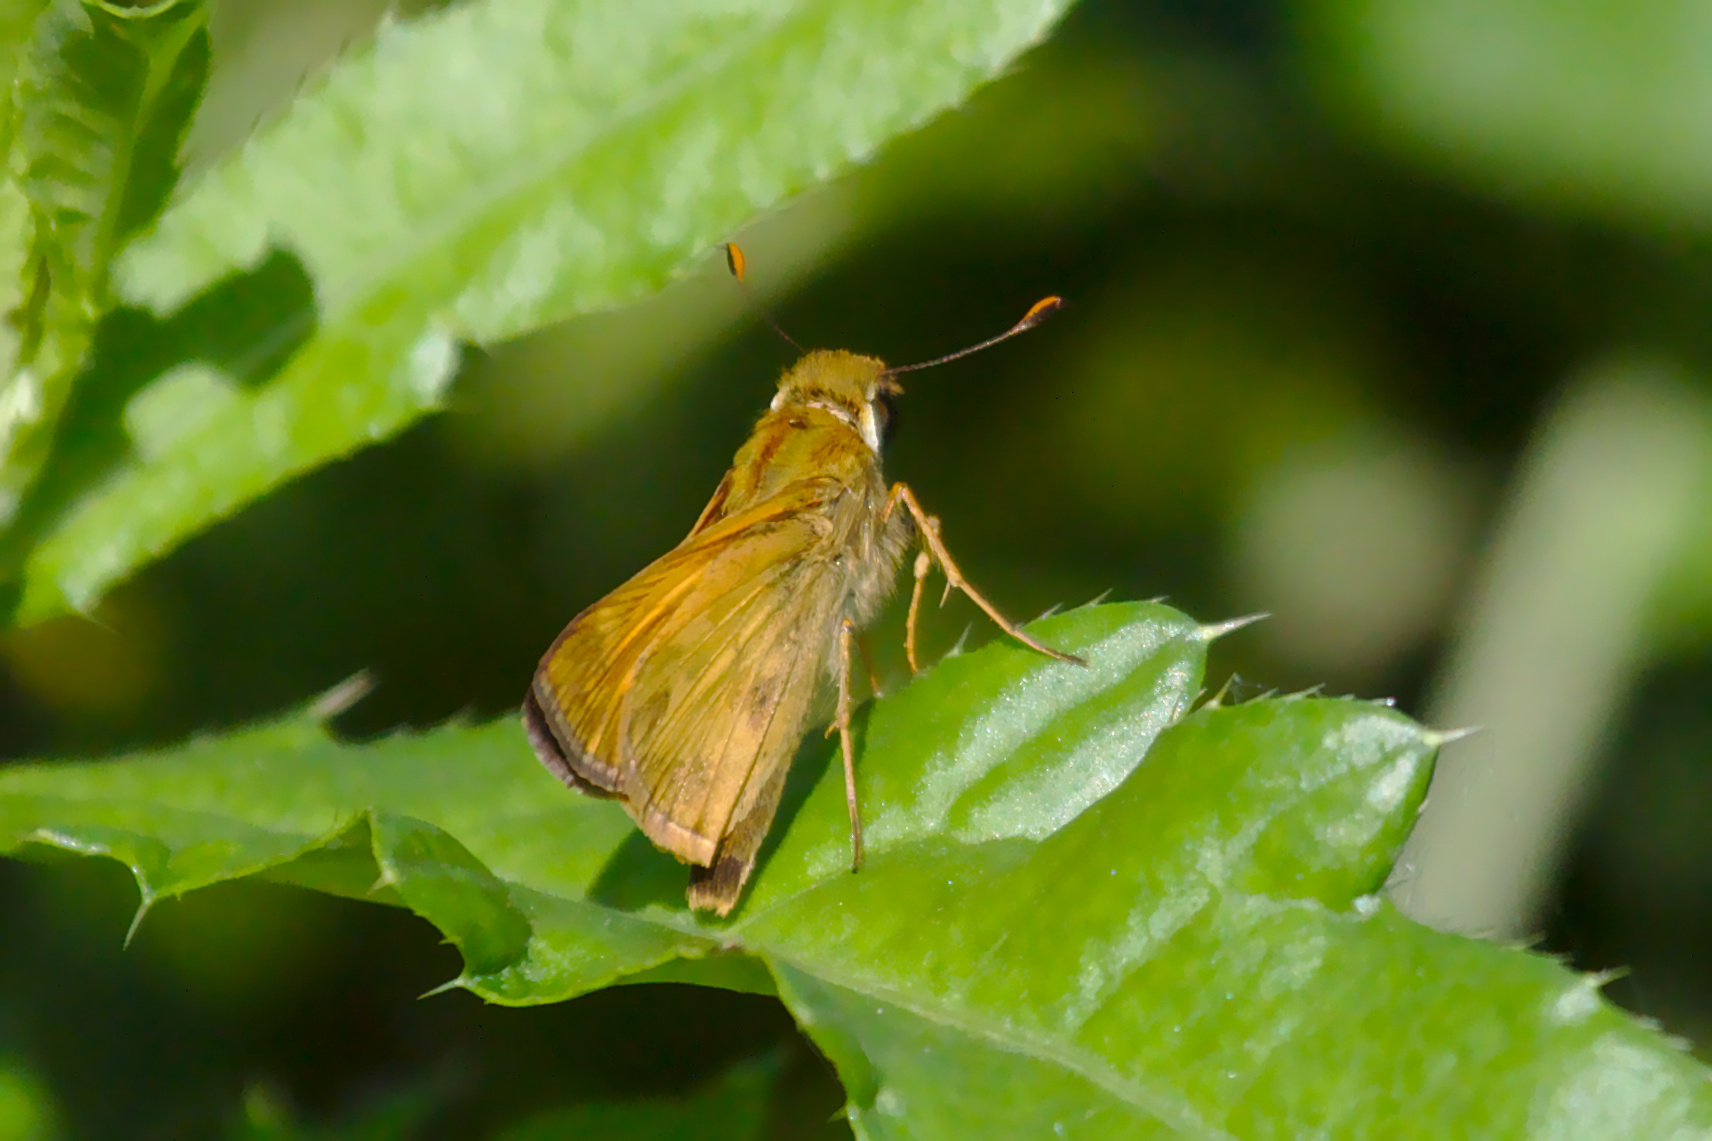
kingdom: Animalia
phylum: Arthropoda
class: Insecta
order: Lepidoptera
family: Hesperiidae
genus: Atalopedes
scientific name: Atalopedes
